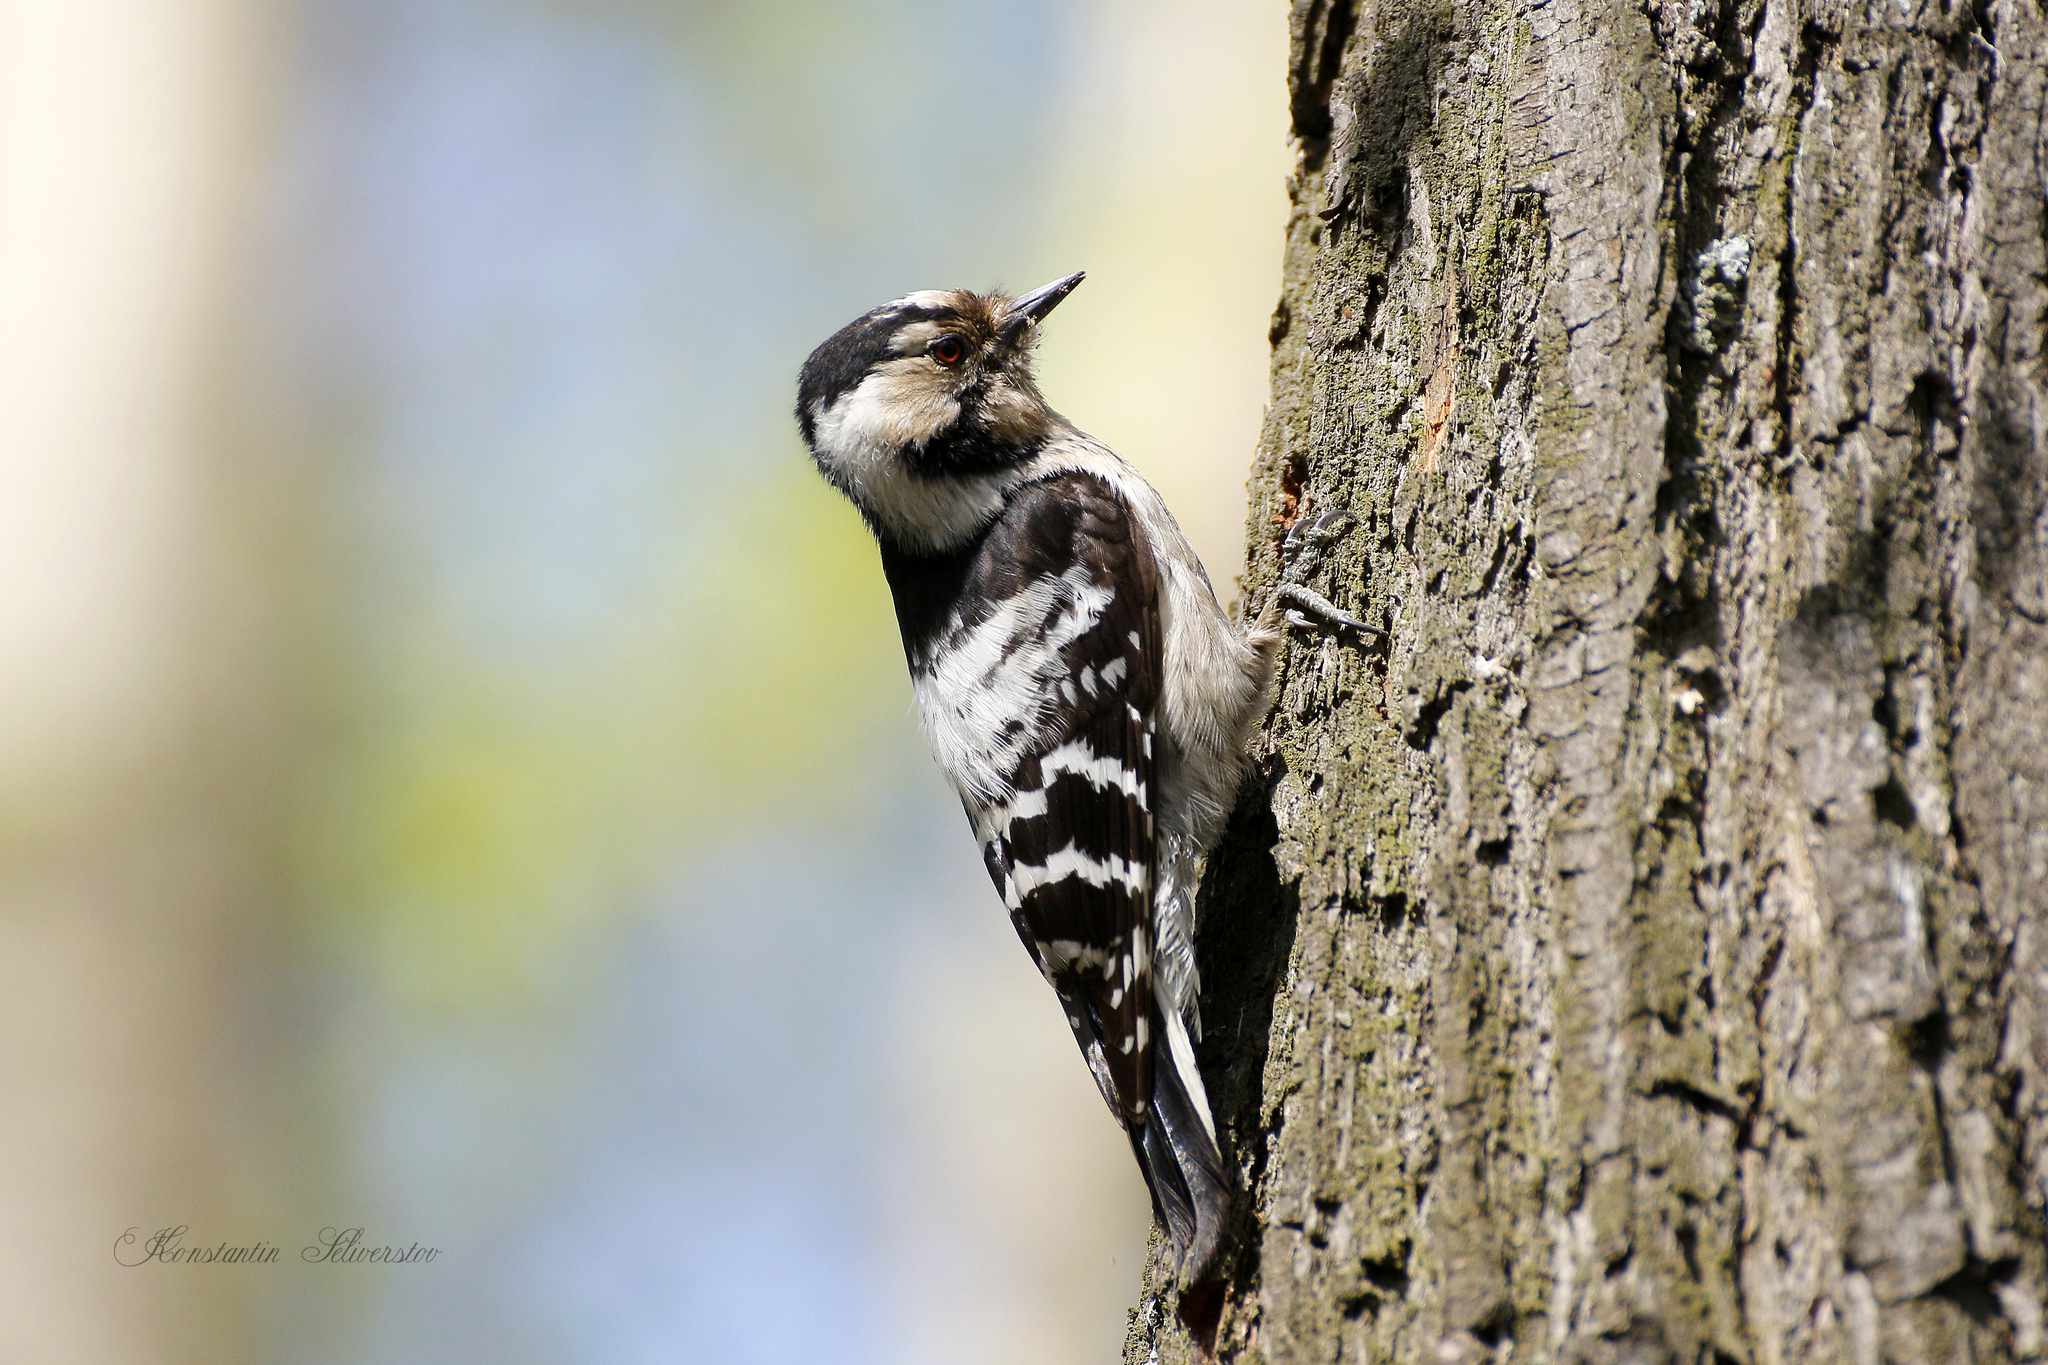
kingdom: Animalia
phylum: Chordata
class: Aves
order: Piciformes
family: Picidae
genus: Dryobates
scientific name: Dryobates minor
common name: Lesser spotted woodpecker
